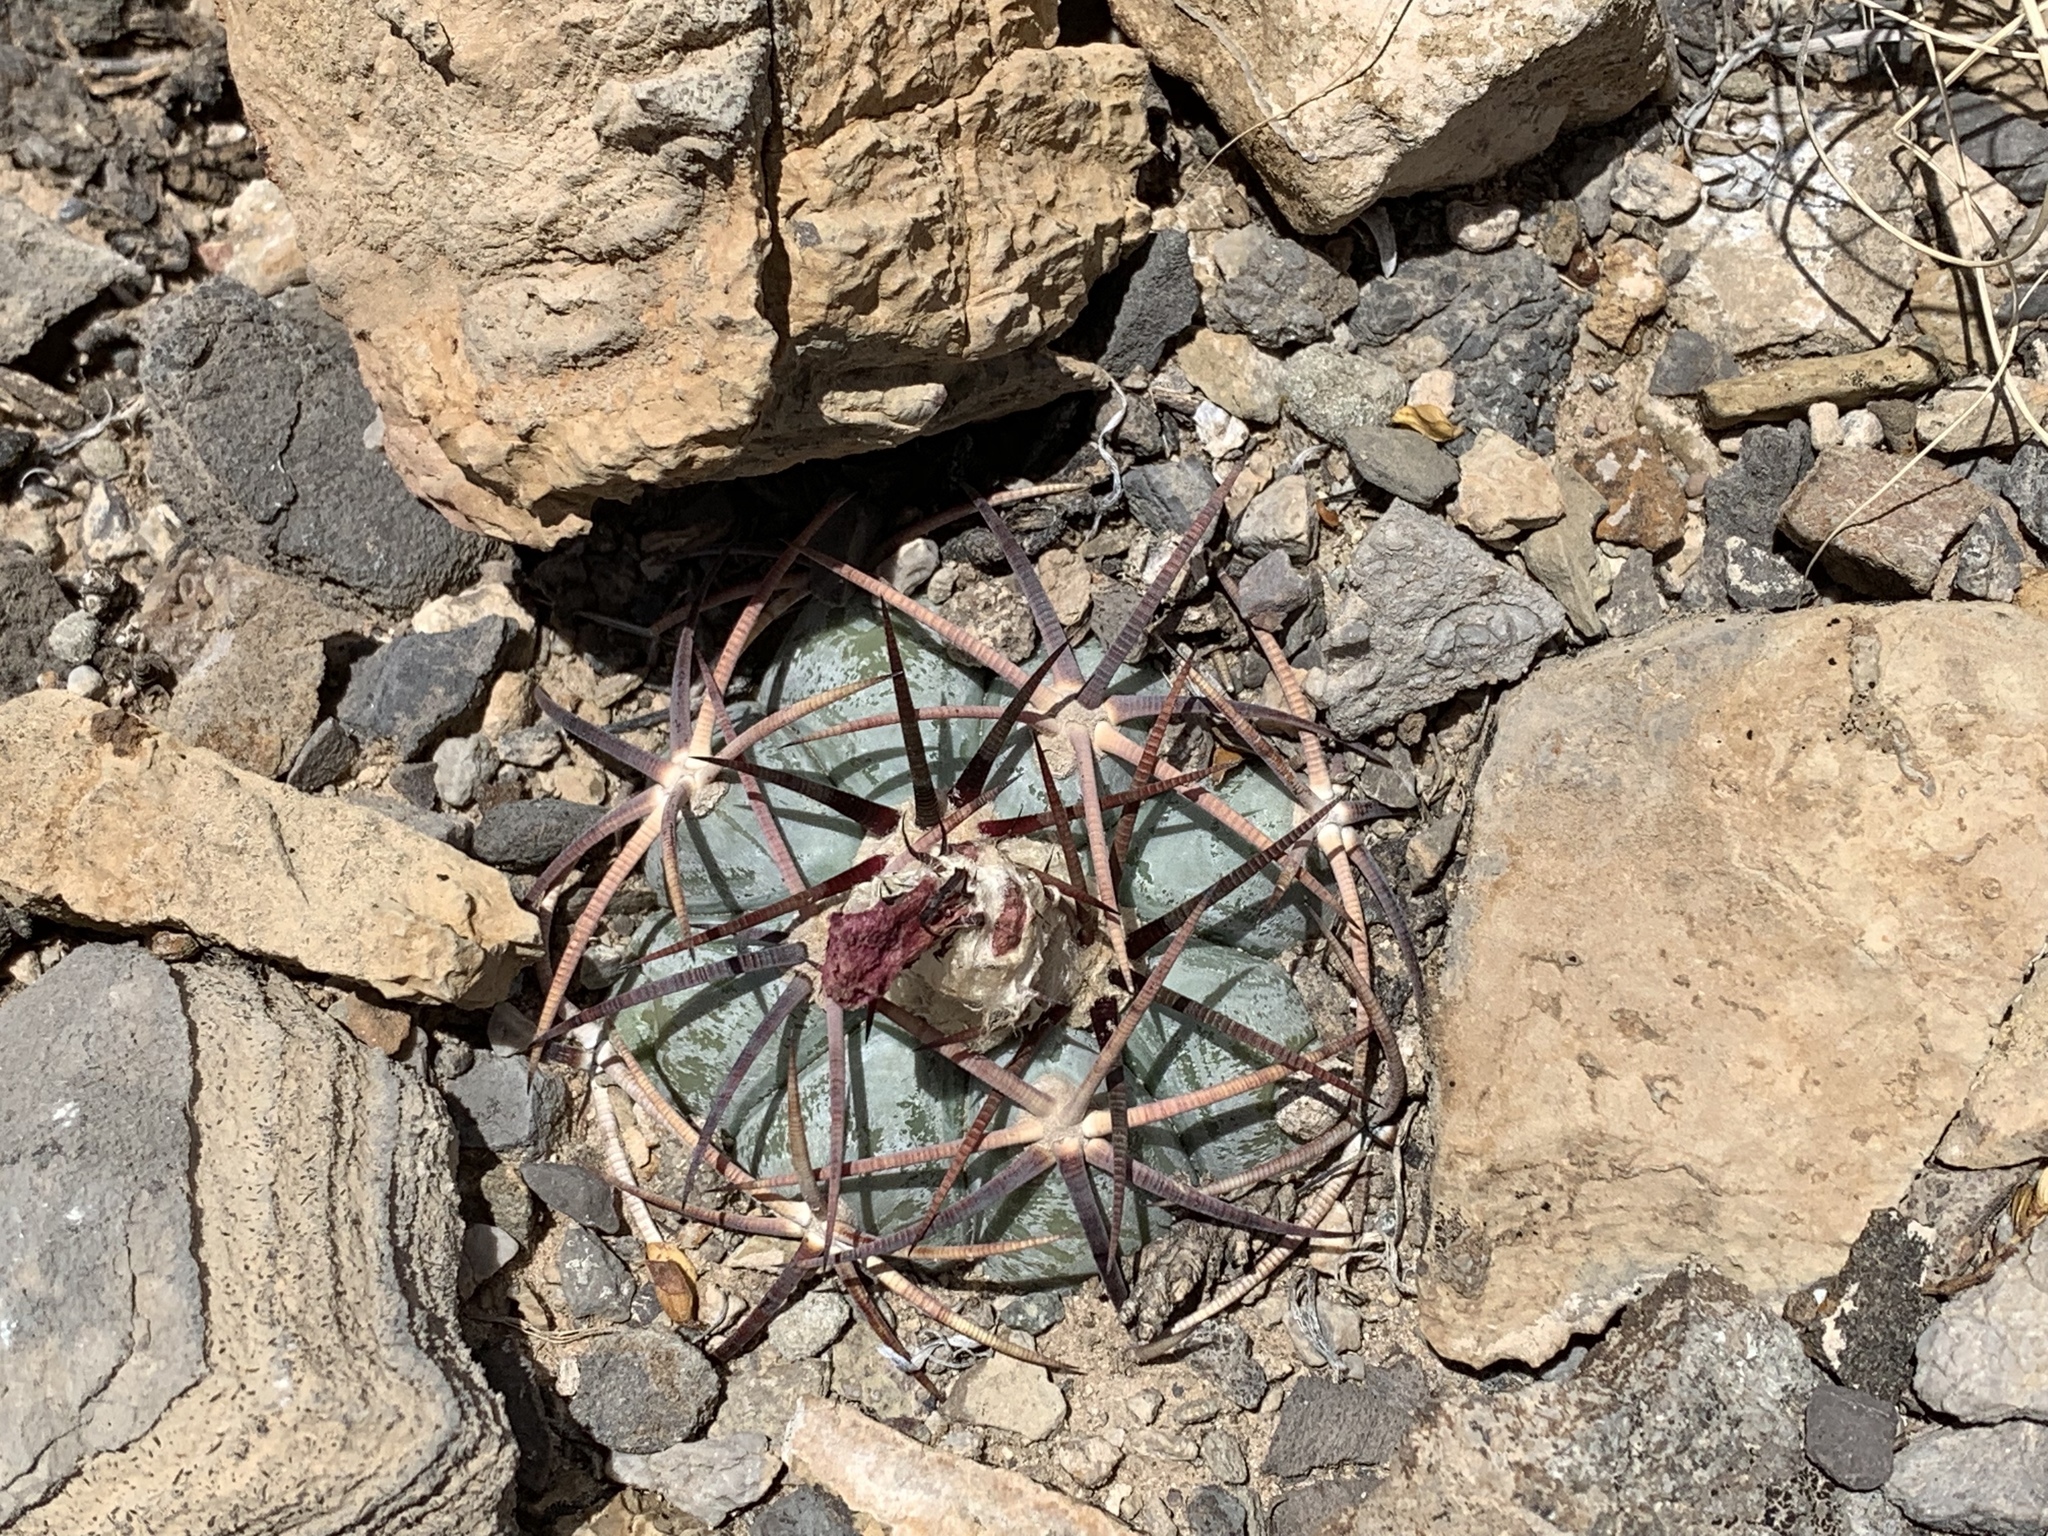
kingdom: Plantae
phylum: Tracheophyta
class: Magnoliopsida
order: Caryophyllales
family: Cactaceae
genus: Echinocactus
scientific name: Echinocactus horizonthalonius
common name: Devilshead
